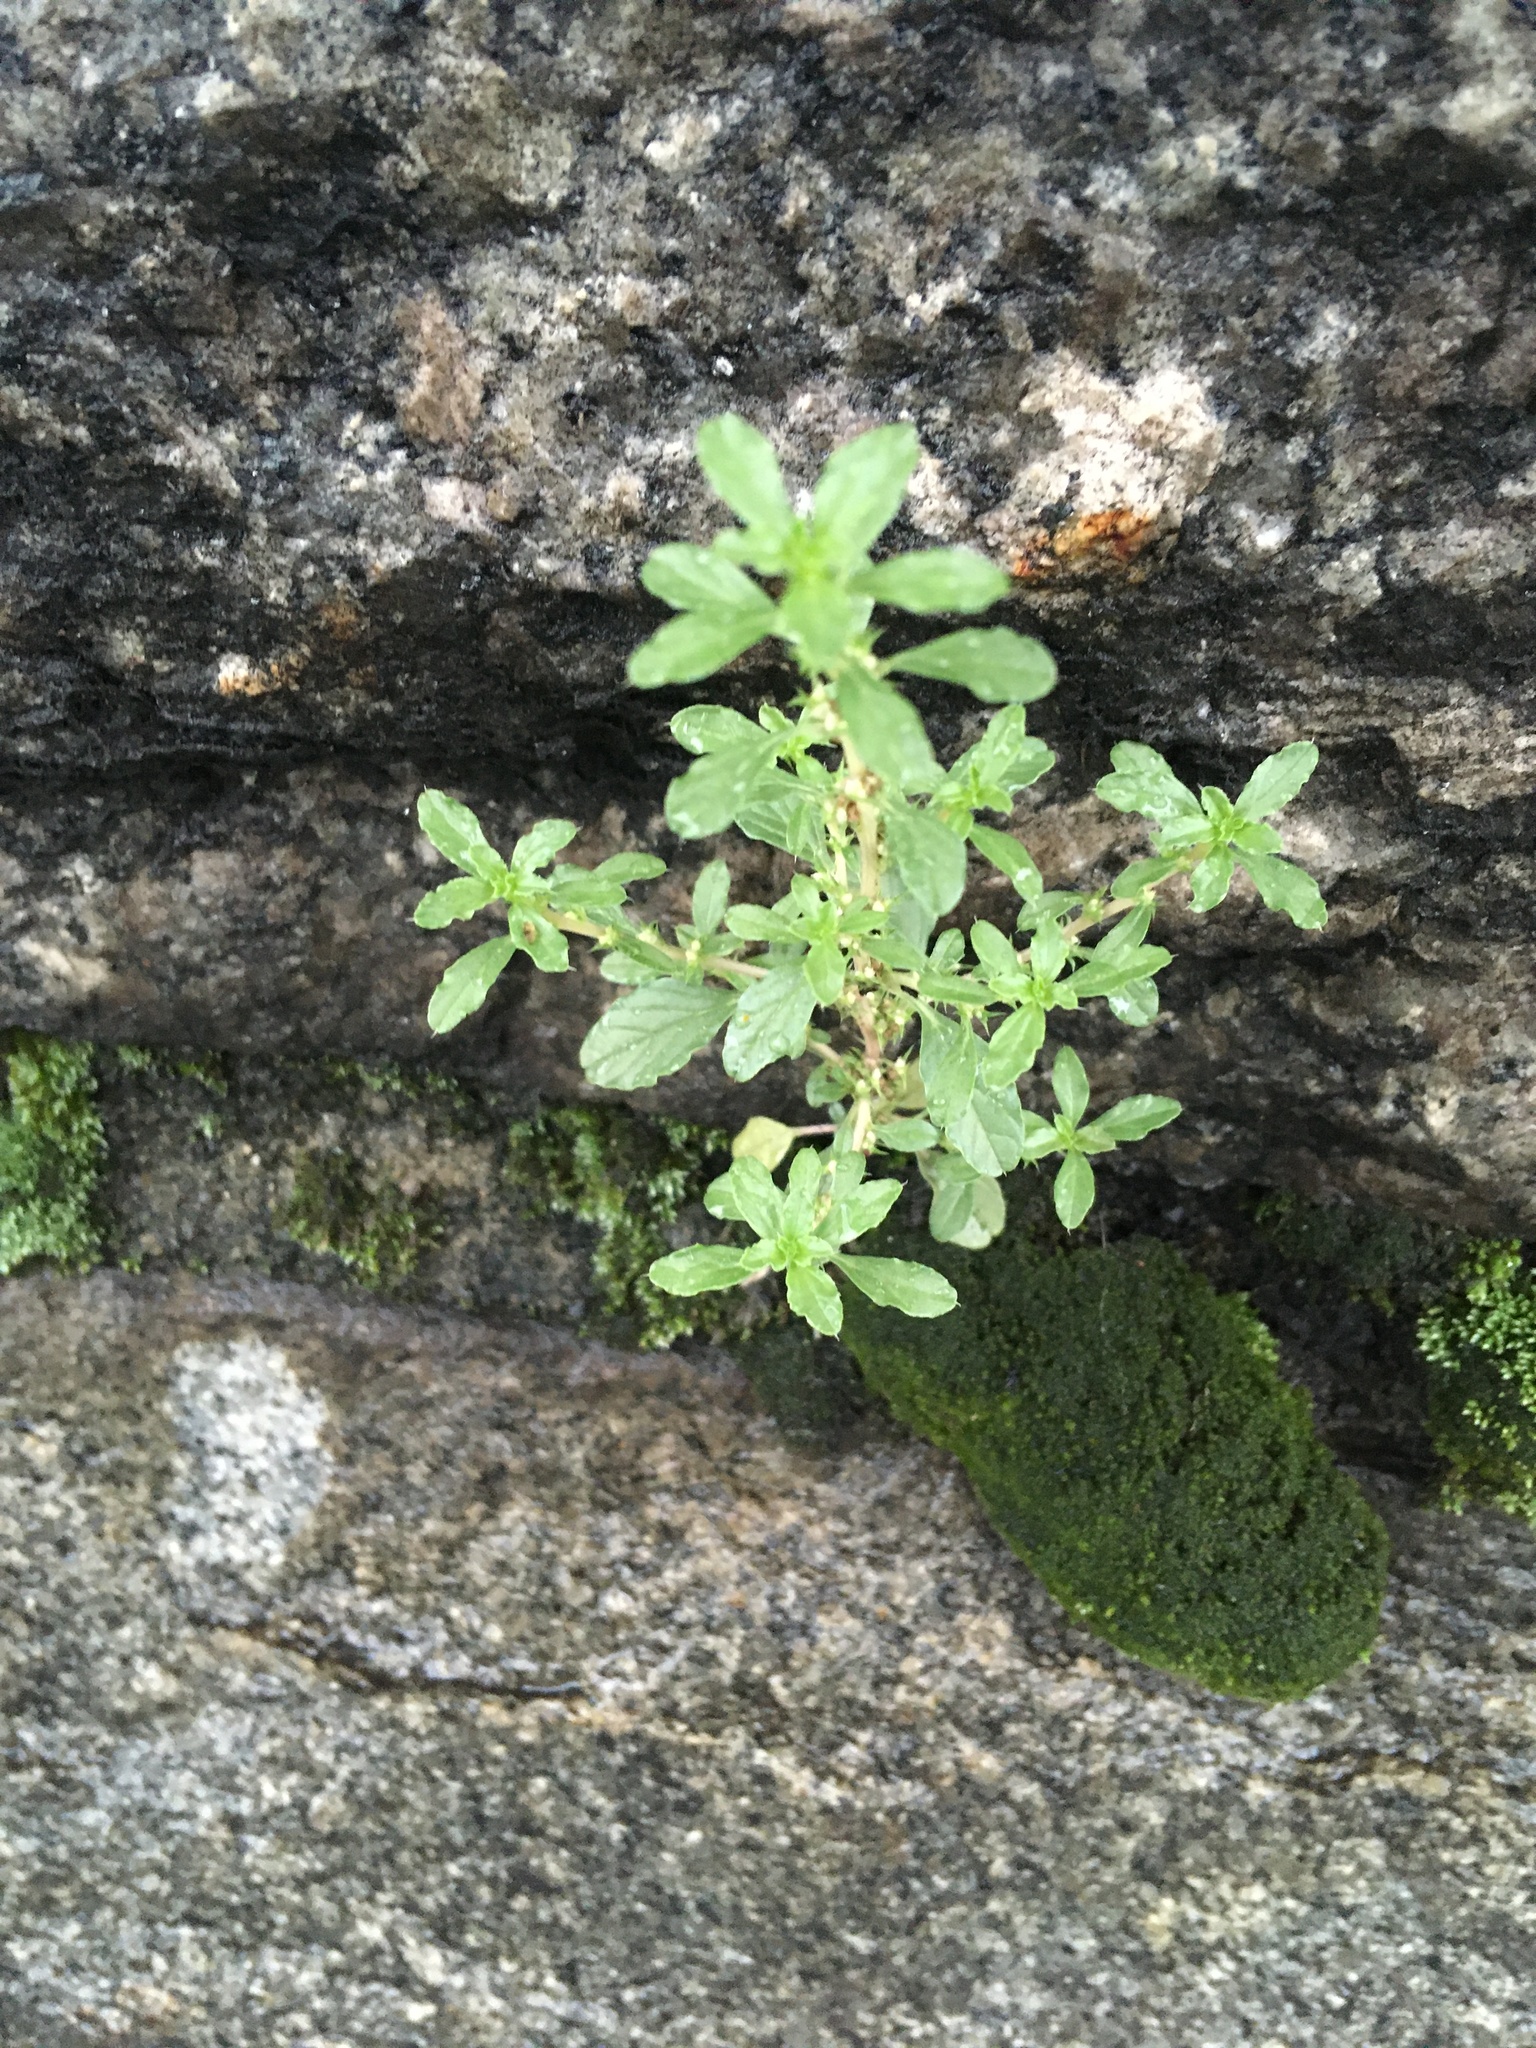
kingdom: Plantae
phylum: Tracheophyta
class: Magnoliopsida
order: Caryophyllales
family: Amaranthaceae
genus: Dysphania
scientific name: Dysphania pumilio
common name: Clammy goosefoot
